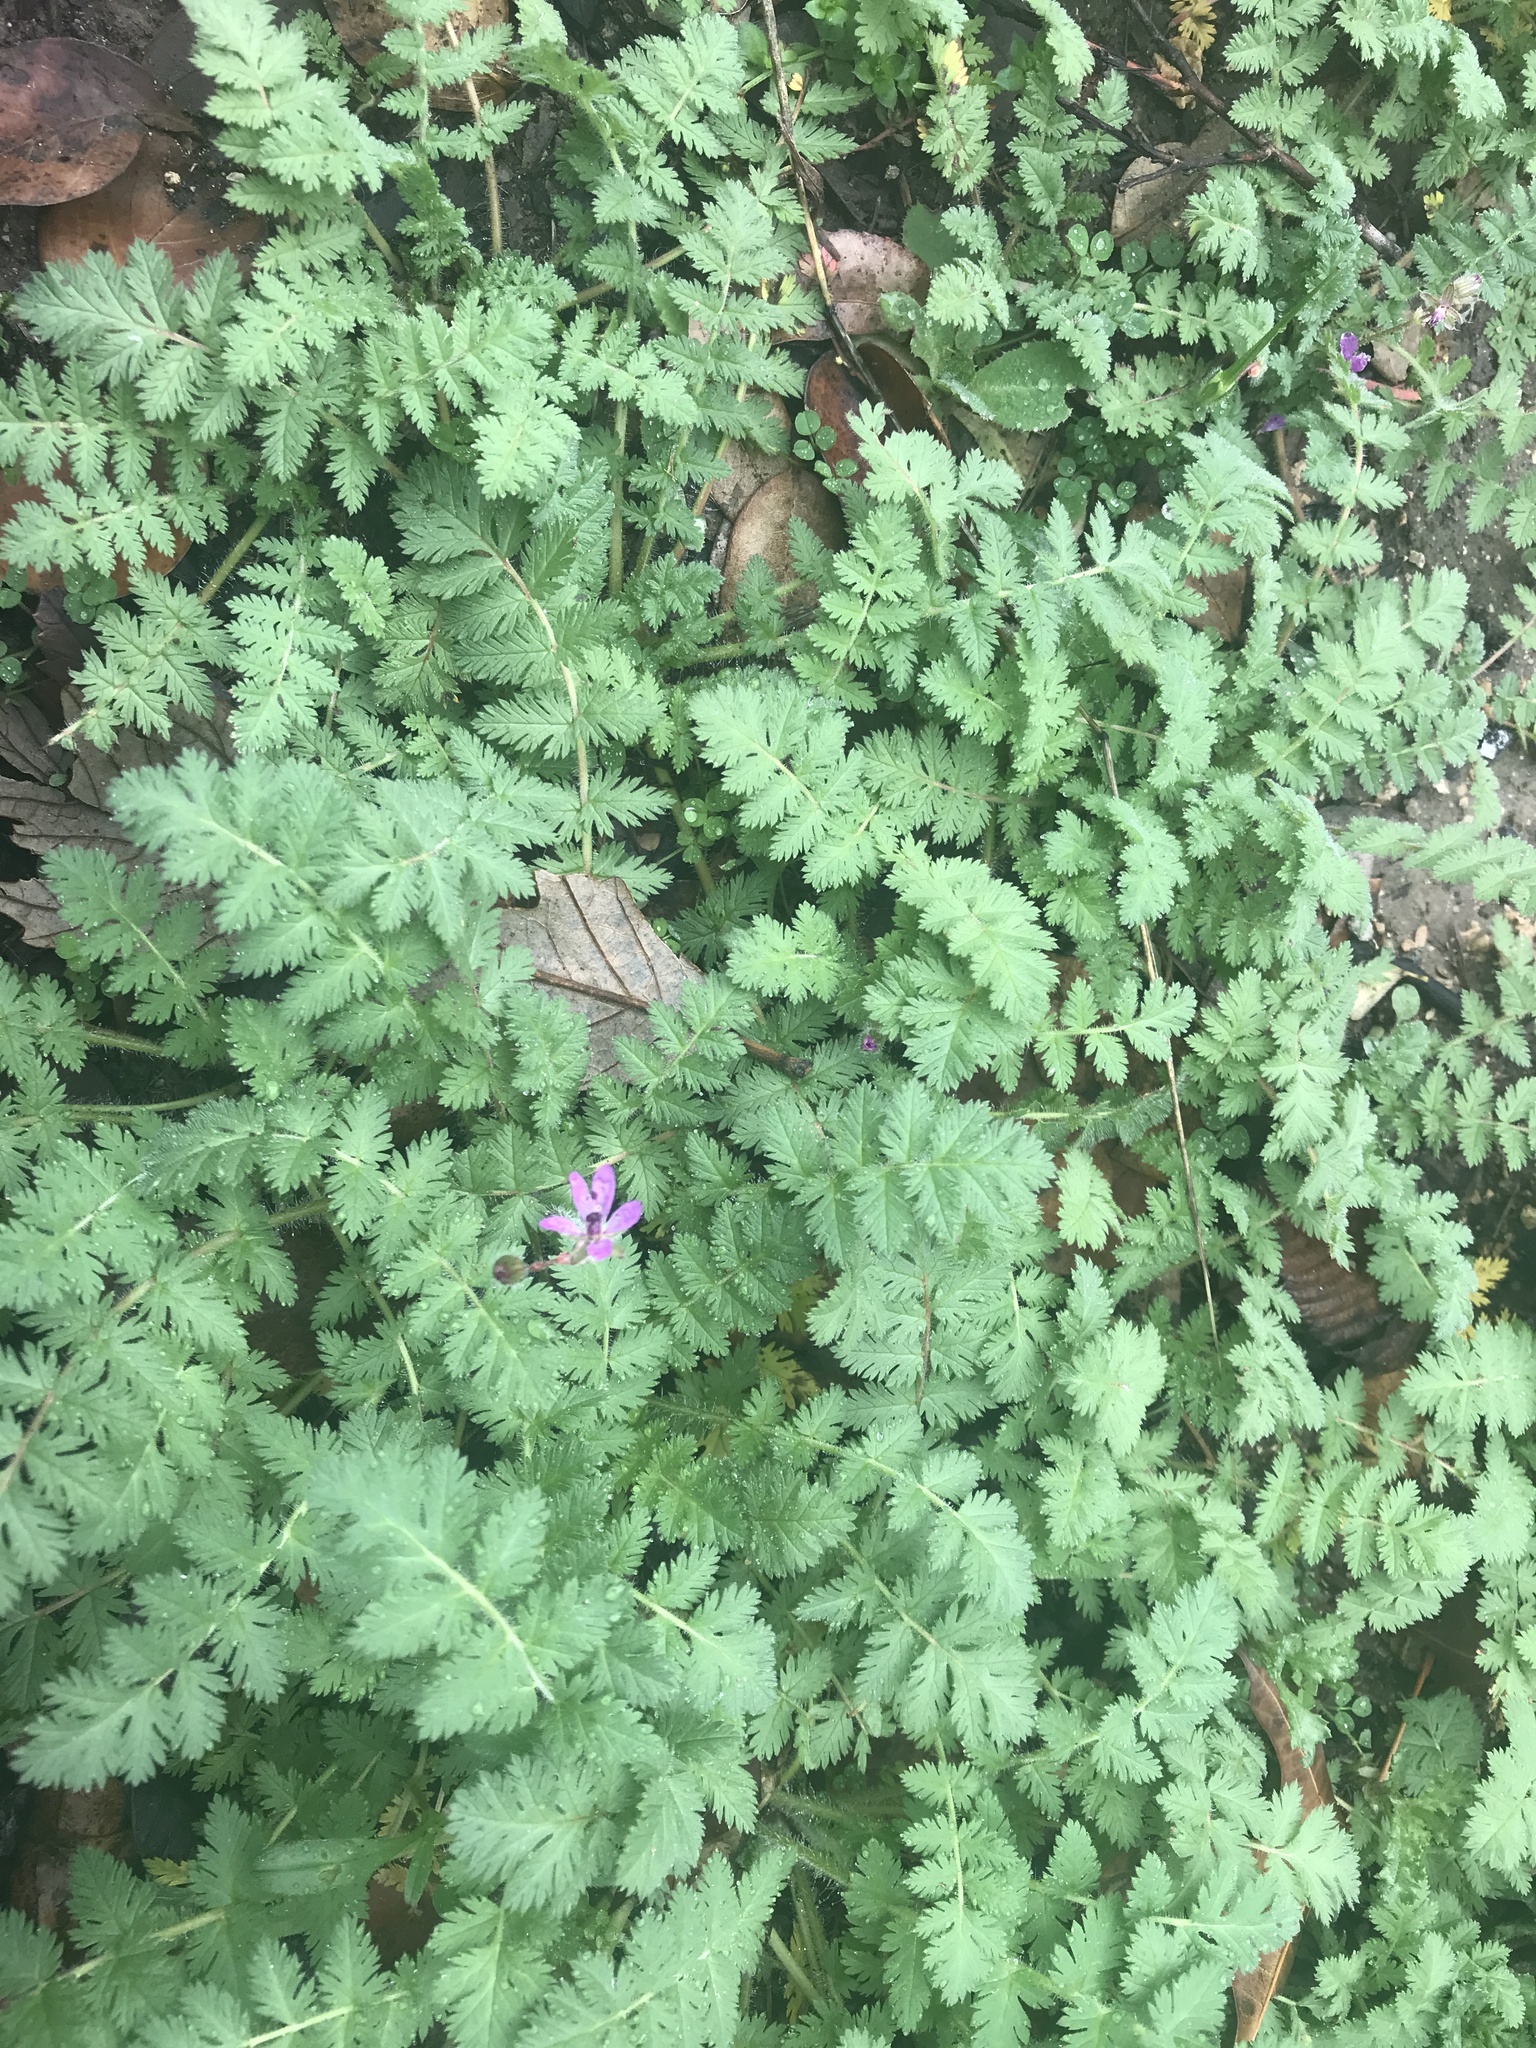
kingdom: Plantae
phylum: Tracheophyta
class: Magnoliopsida
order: Geraniales
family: Geraniaceae
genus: Erodium
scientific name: Erodium cicutarium
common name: Common stork's-bill
